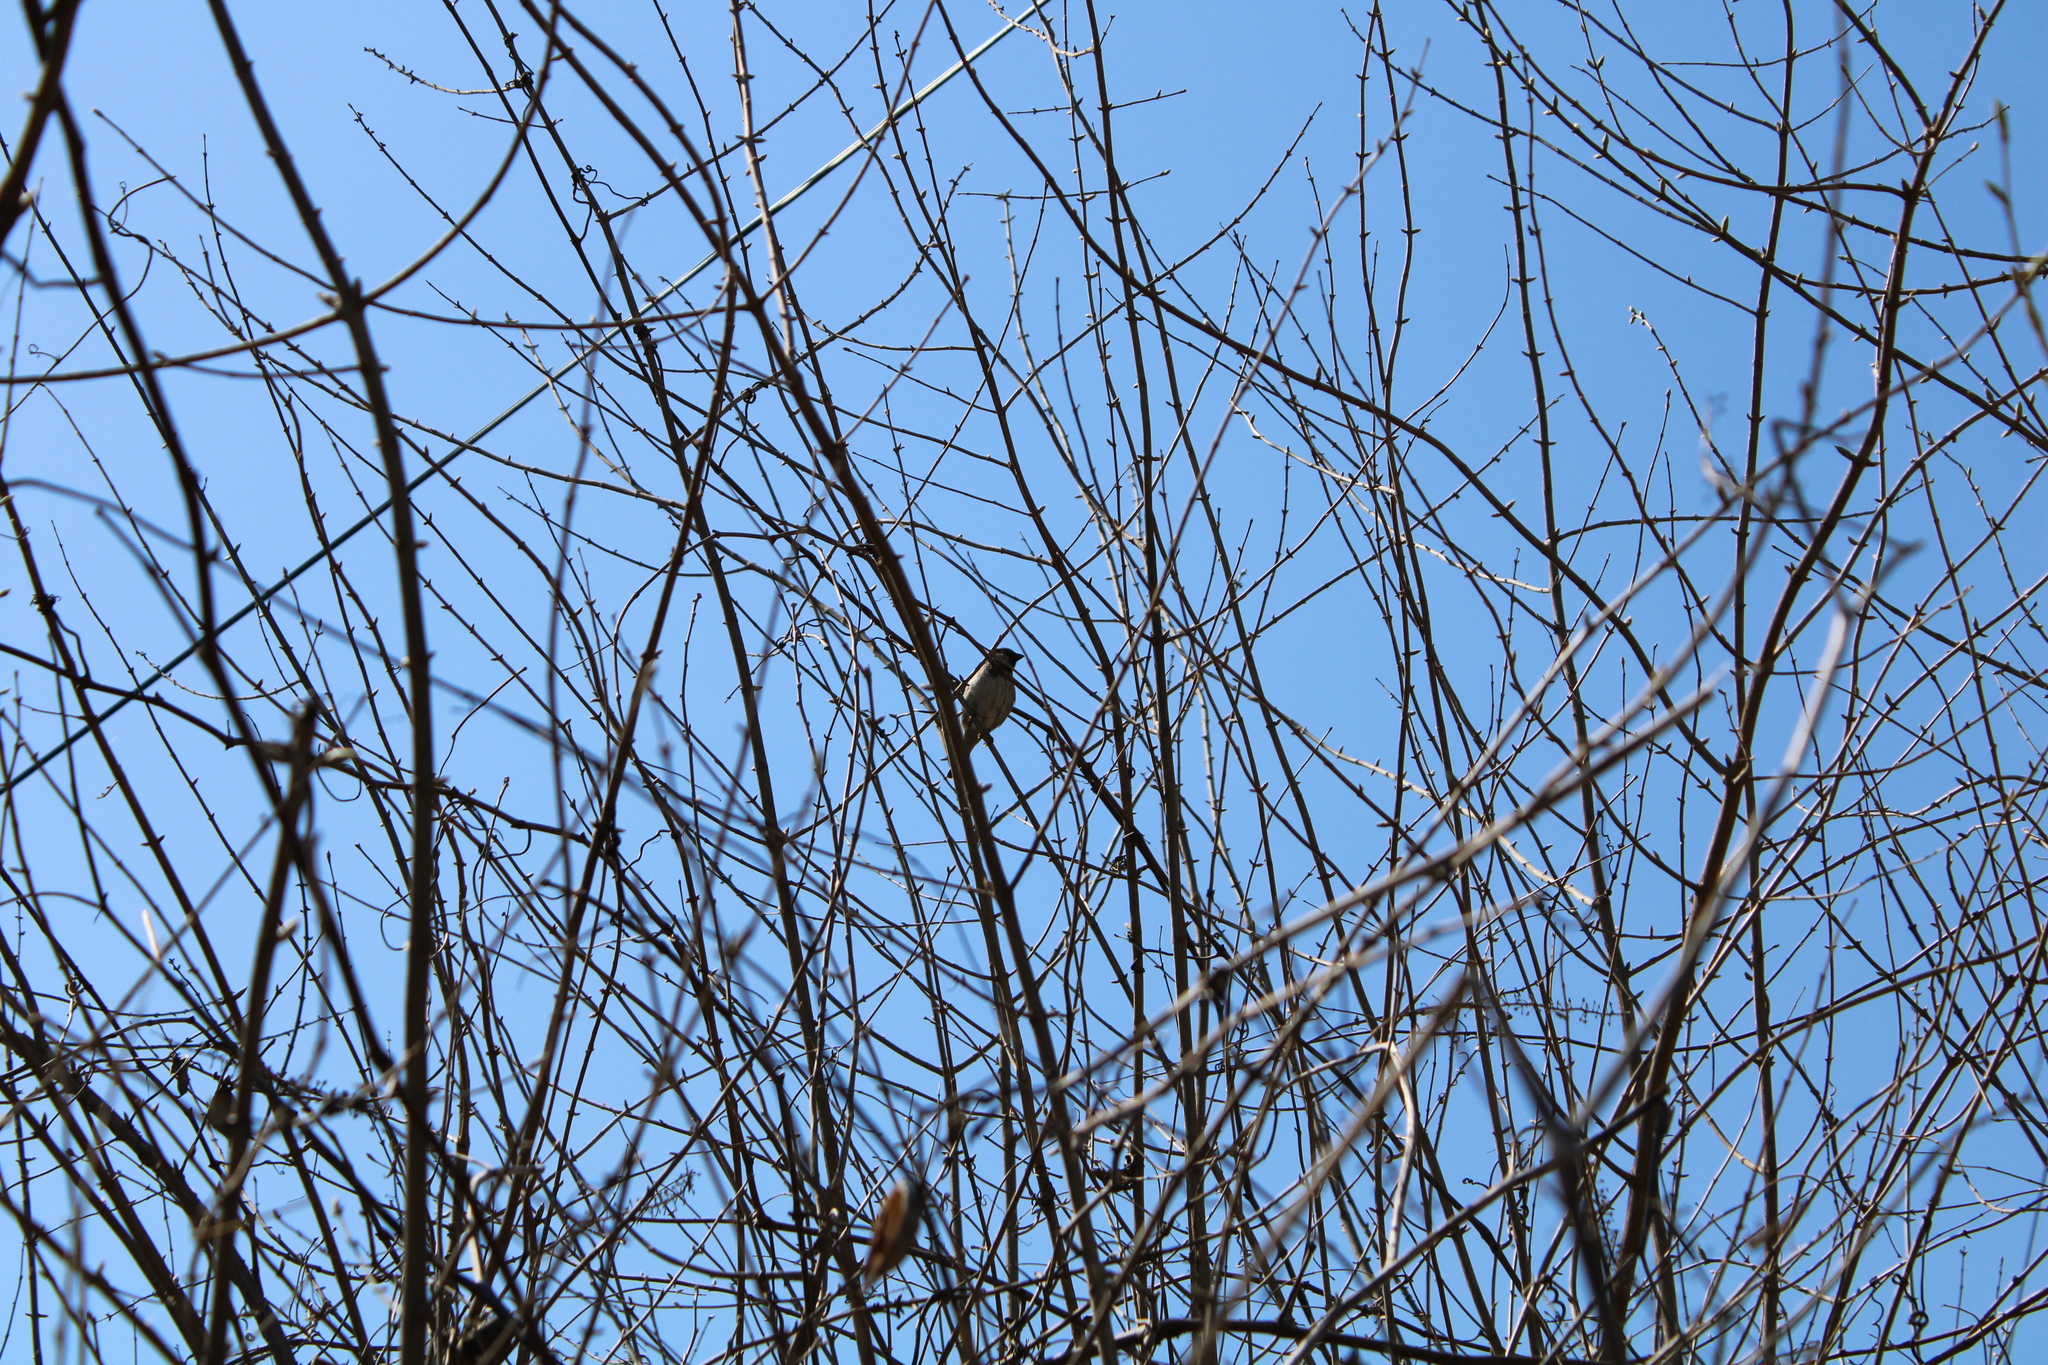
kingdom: Animalia
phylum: Chordata
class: Aves
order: Passeriformes
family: Passeridae
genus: Passer
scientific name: Passer domesticus
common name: House sparrow
